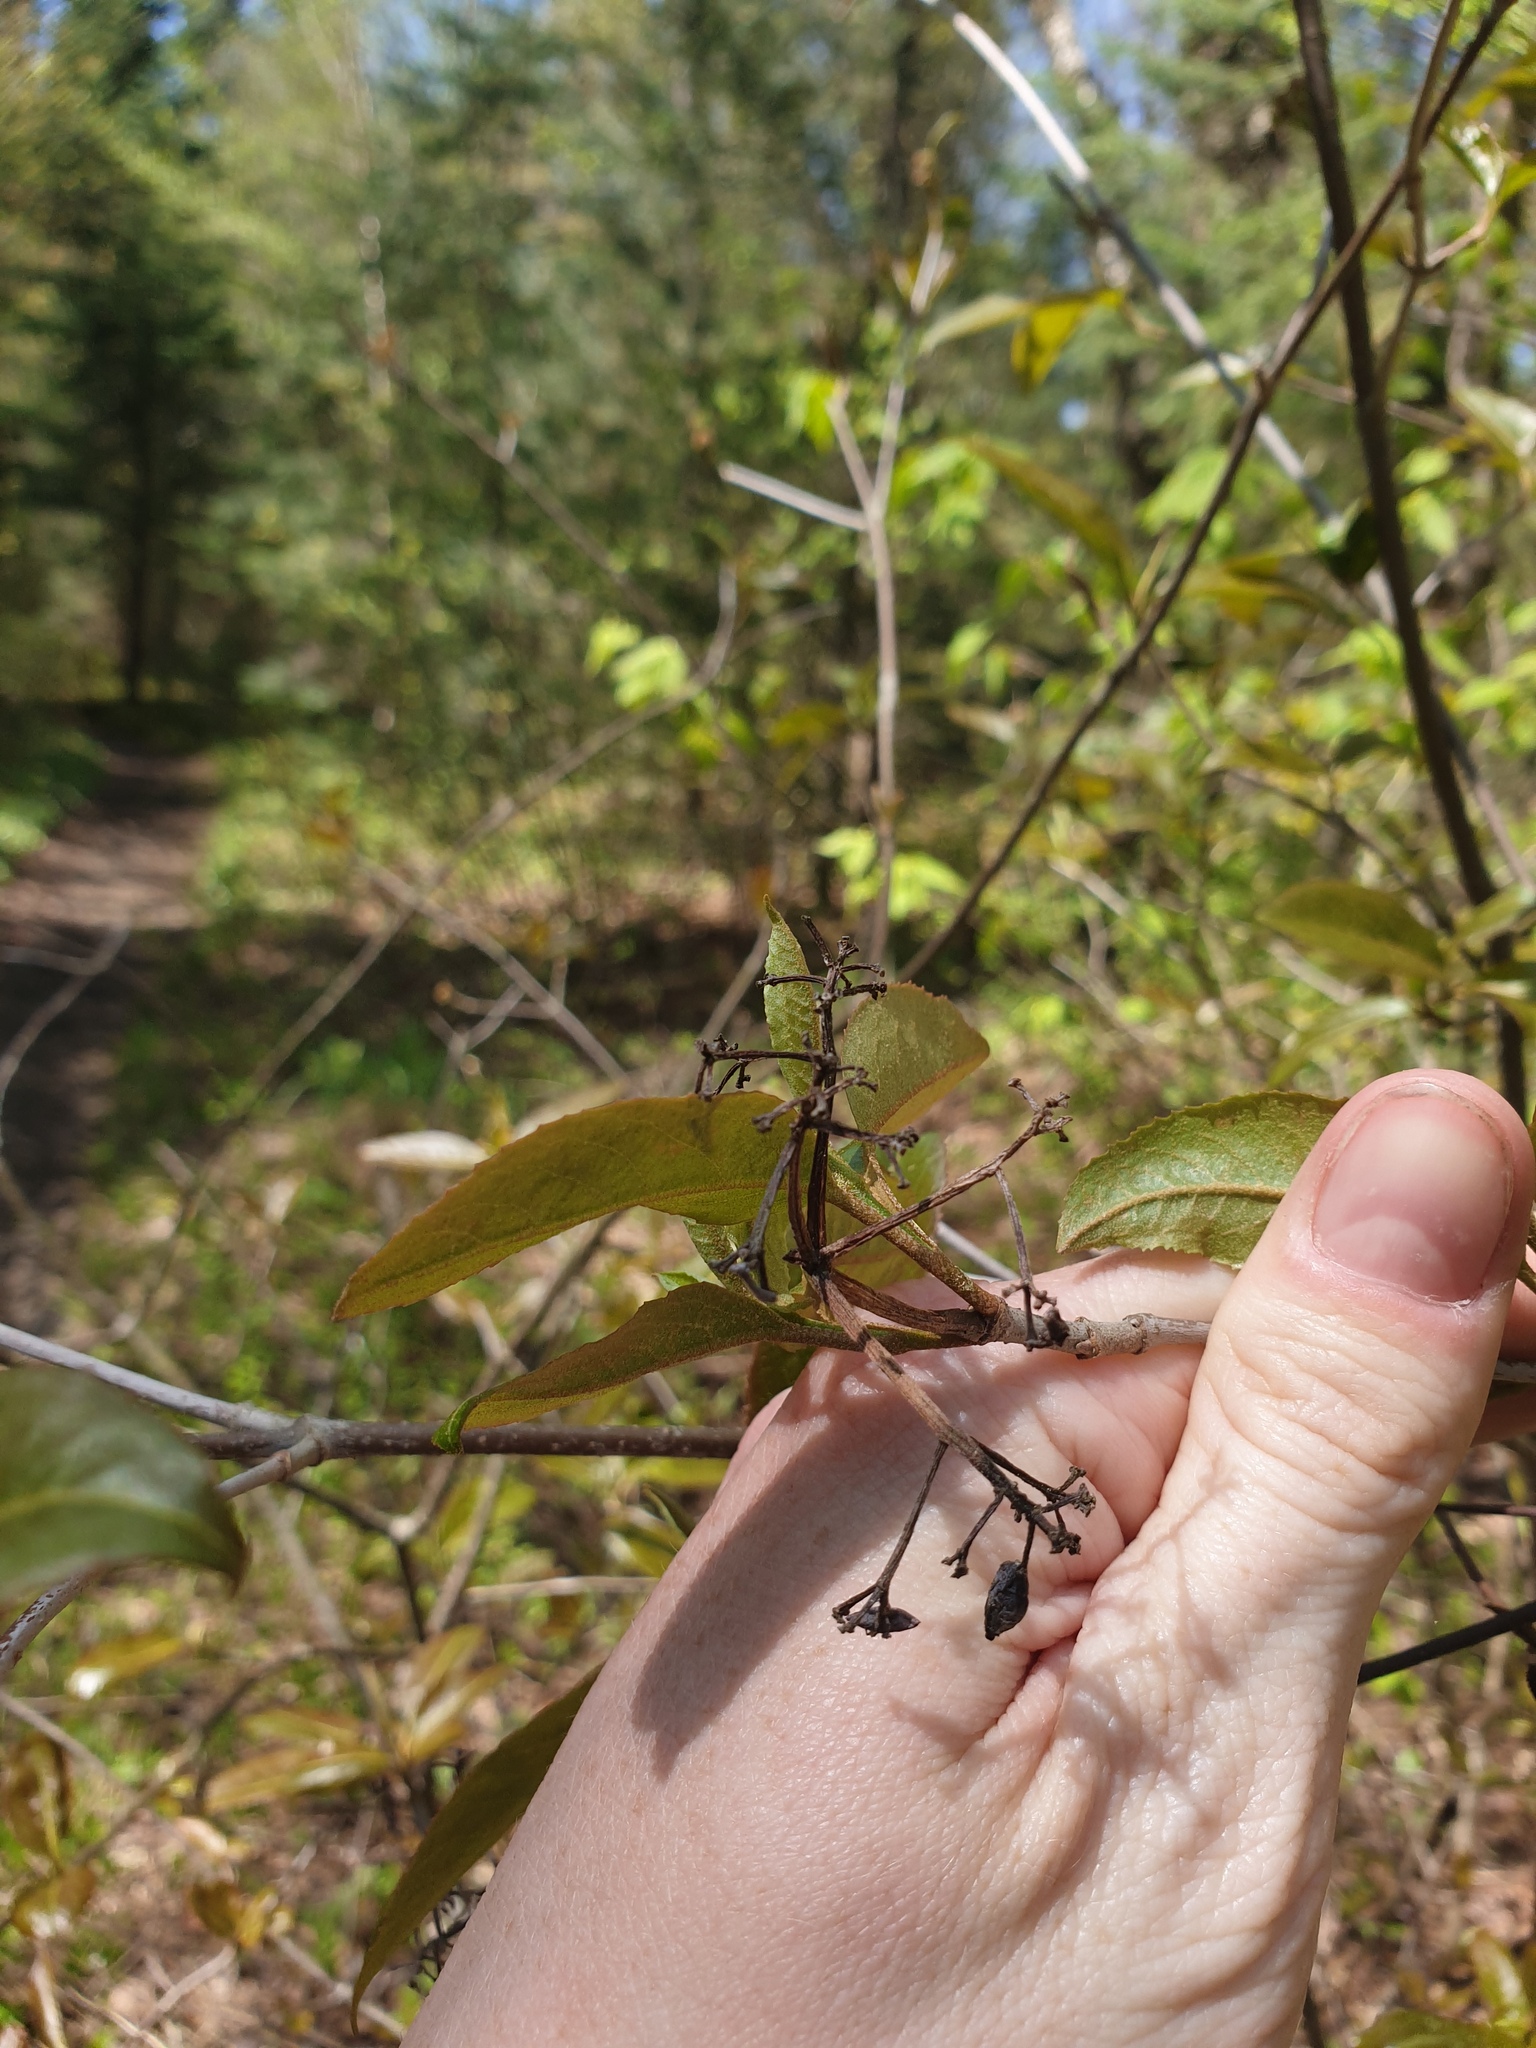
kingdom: Plantae
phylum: Tracheophyta
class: Magnoliopsida
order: Dipsacales
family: Viburnaceae
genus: Viburnum
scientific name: Viburnum cassinoides
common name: Swamp haw
